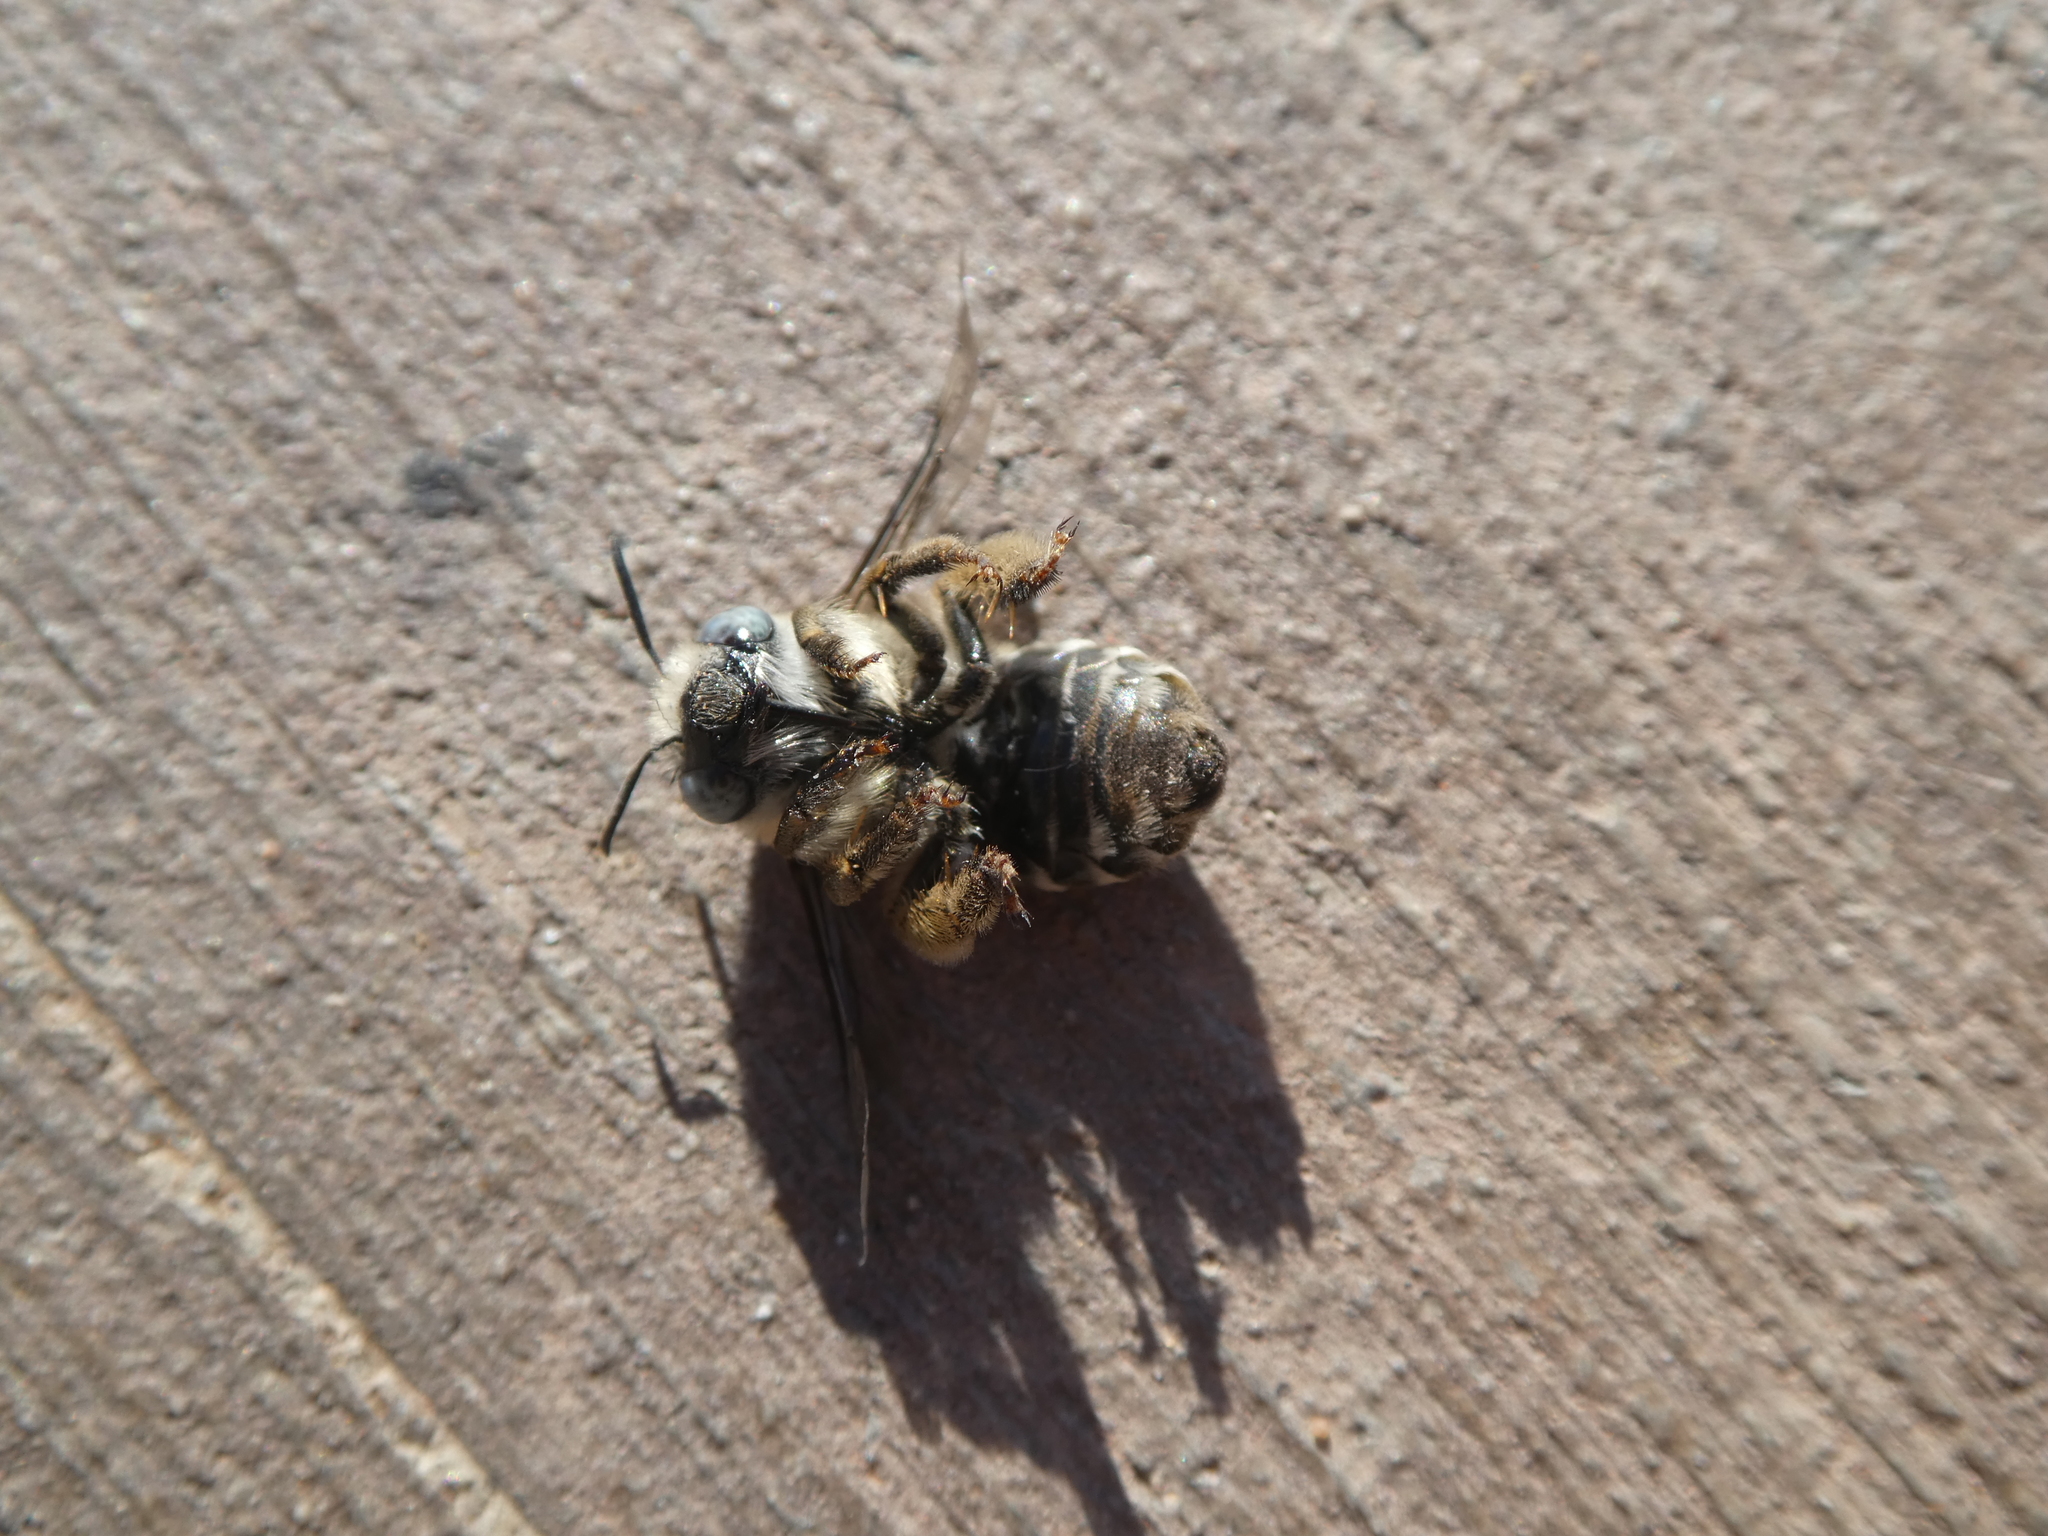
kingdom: Animalia
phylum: Arthropoda
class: Insecta
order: Hymenoptera
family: Apidae
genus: Anthophora
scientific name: Anthophora urbana
